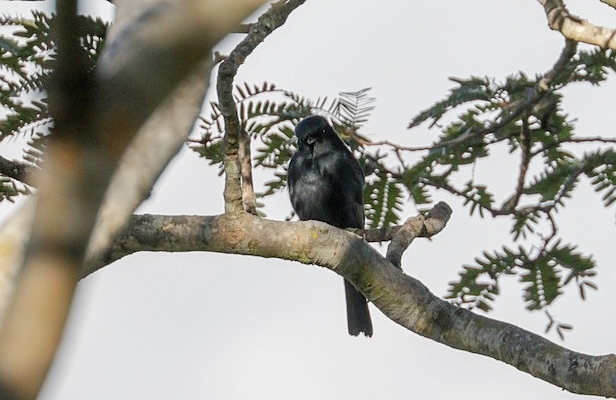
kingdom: Animalia
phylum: Chordata
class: Aves
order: Passeriformes
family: Muscicapidae
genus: Melaenornis
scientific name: Melaenornis pammelaina
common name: Southern black flycatcher
